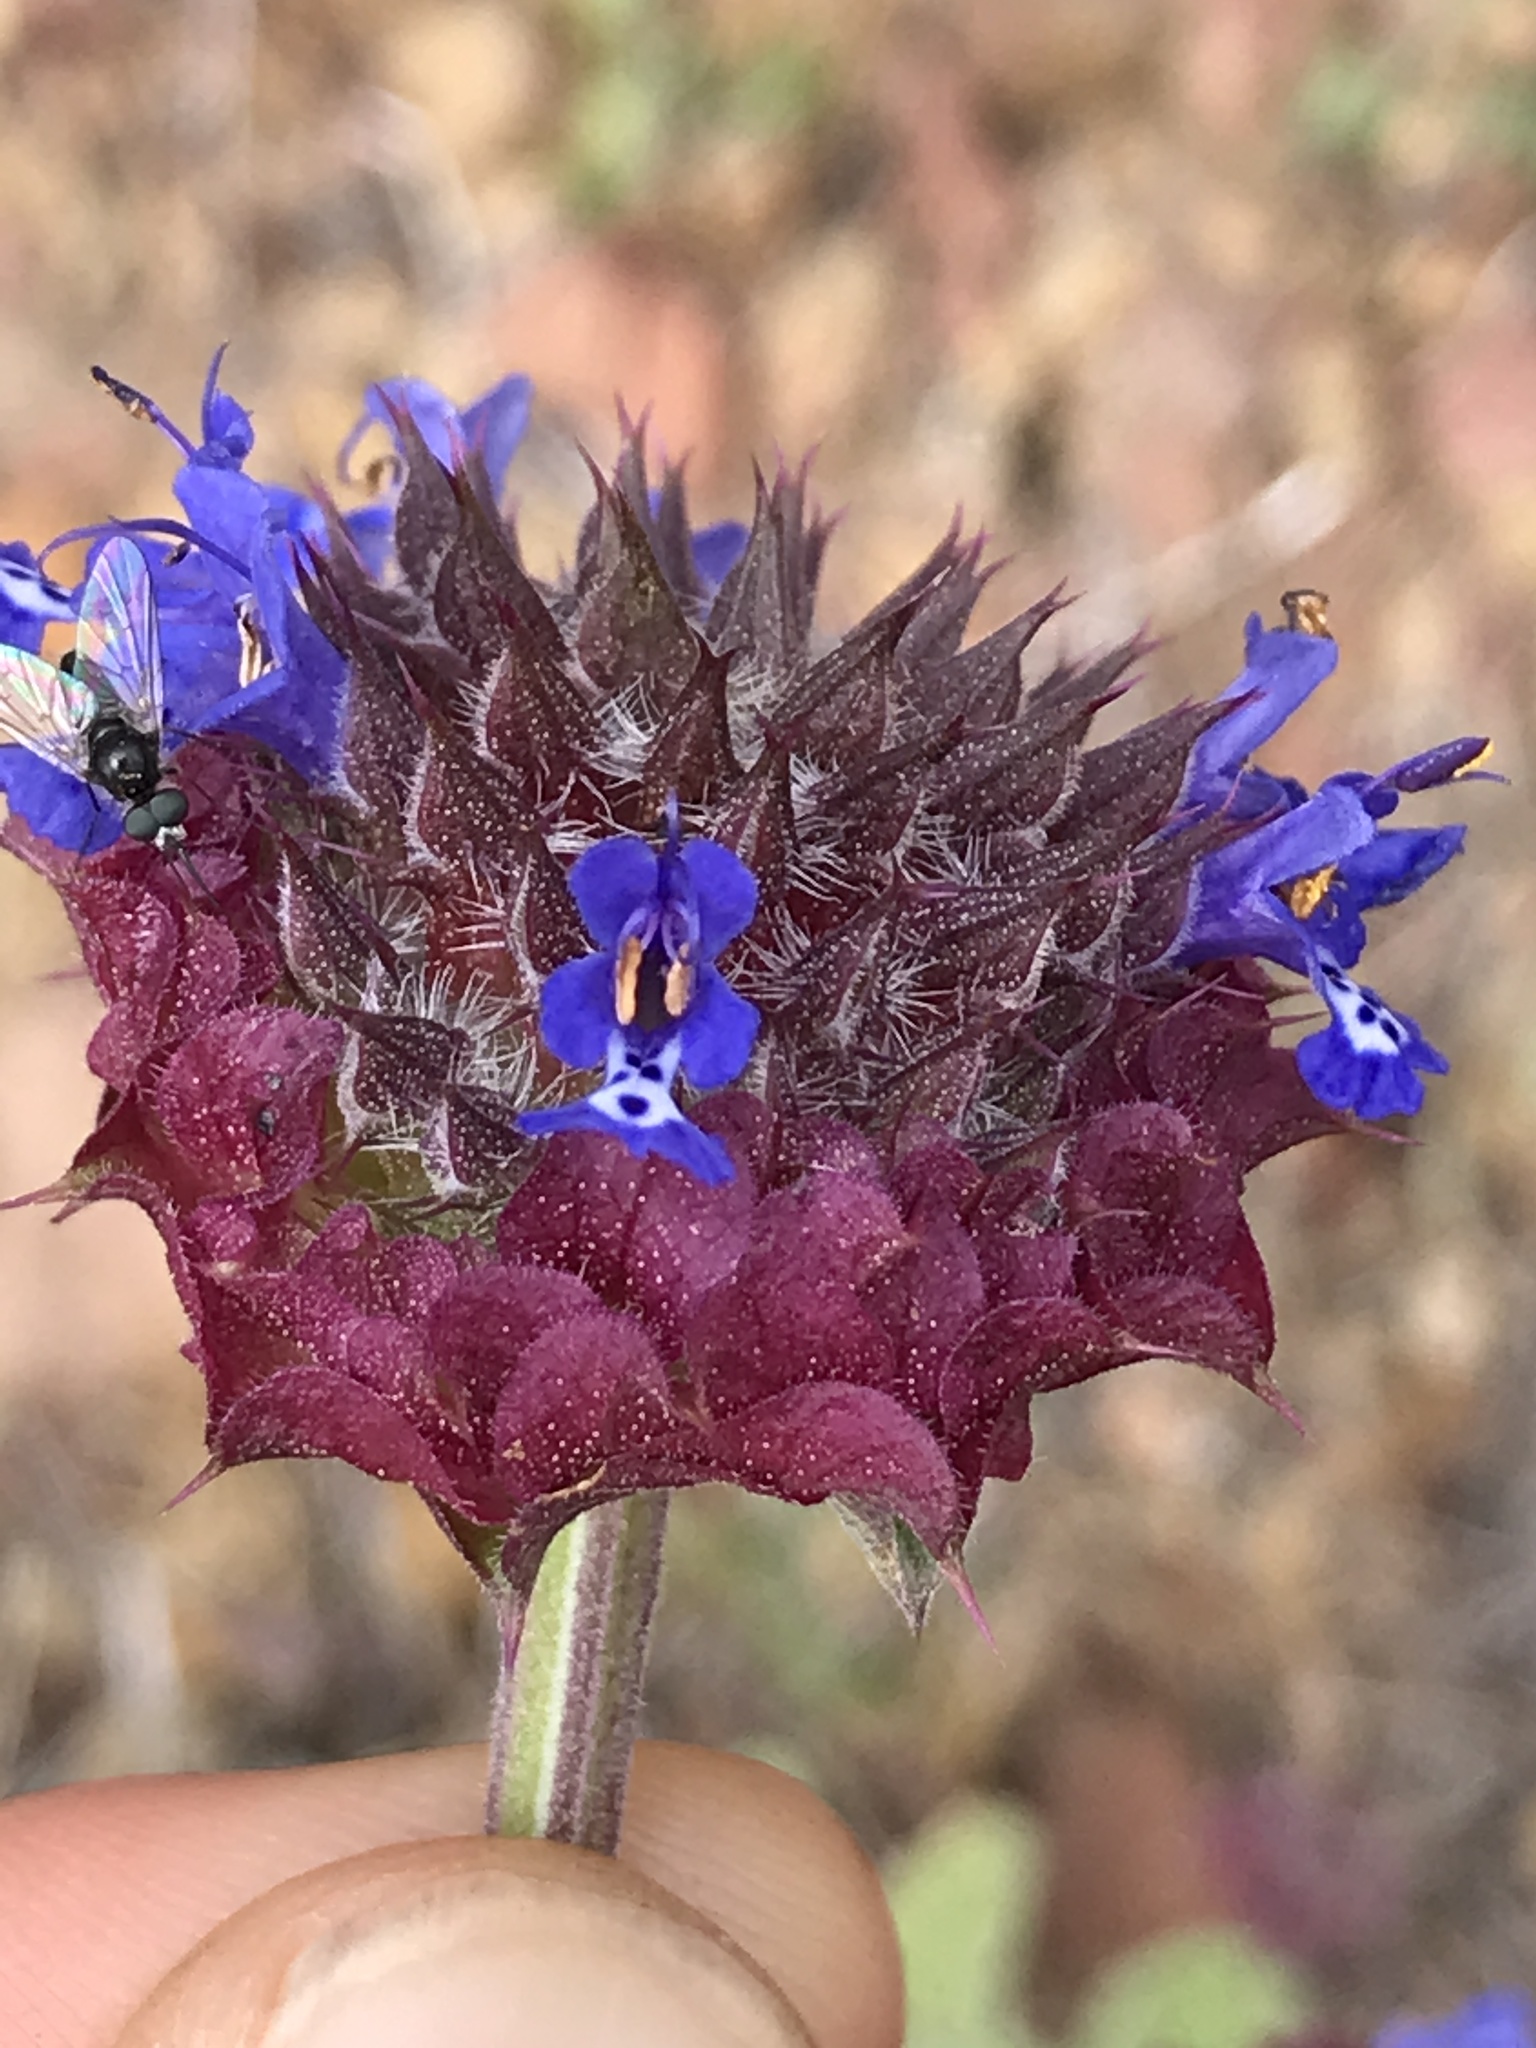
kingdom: Plantae
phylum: Tracheophyta
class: Magnoliopsida
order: Lamiales
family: Lamiaceae
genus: Salvia
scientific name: Salvia columbariae
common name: Chia
